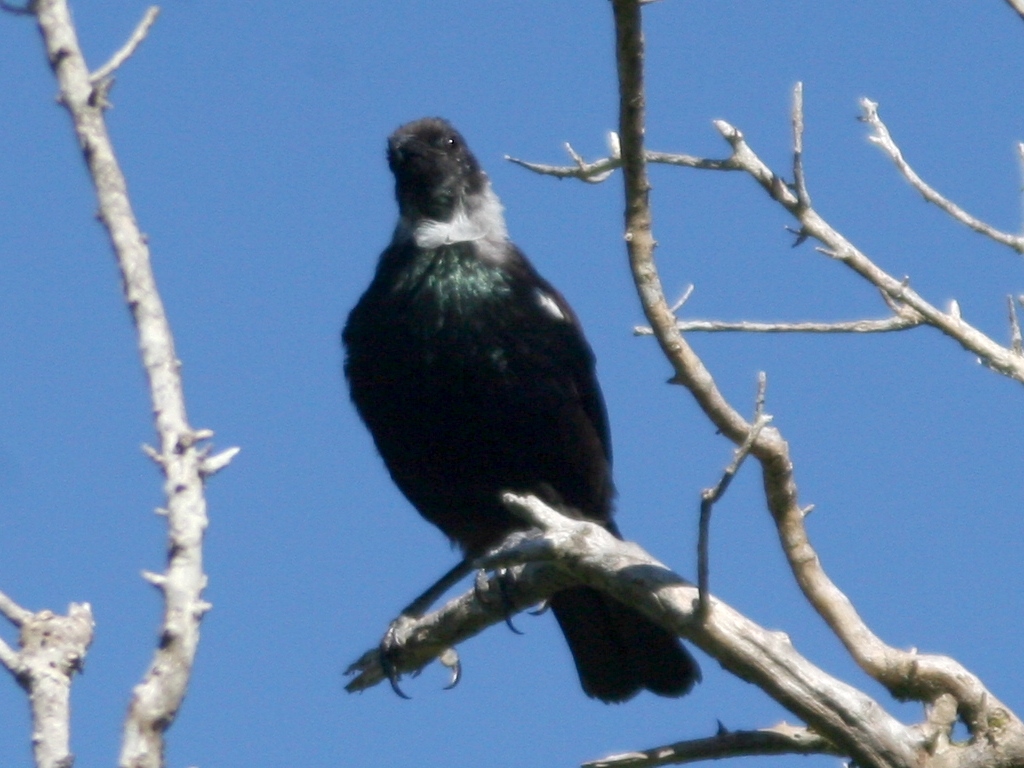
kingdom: Animalia
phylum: Chordata
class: Aves
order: Passeriformes
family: Meliphagidae
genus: Prosthemadera
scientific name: Prosthemadera novaeseelandiae
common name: Tui
